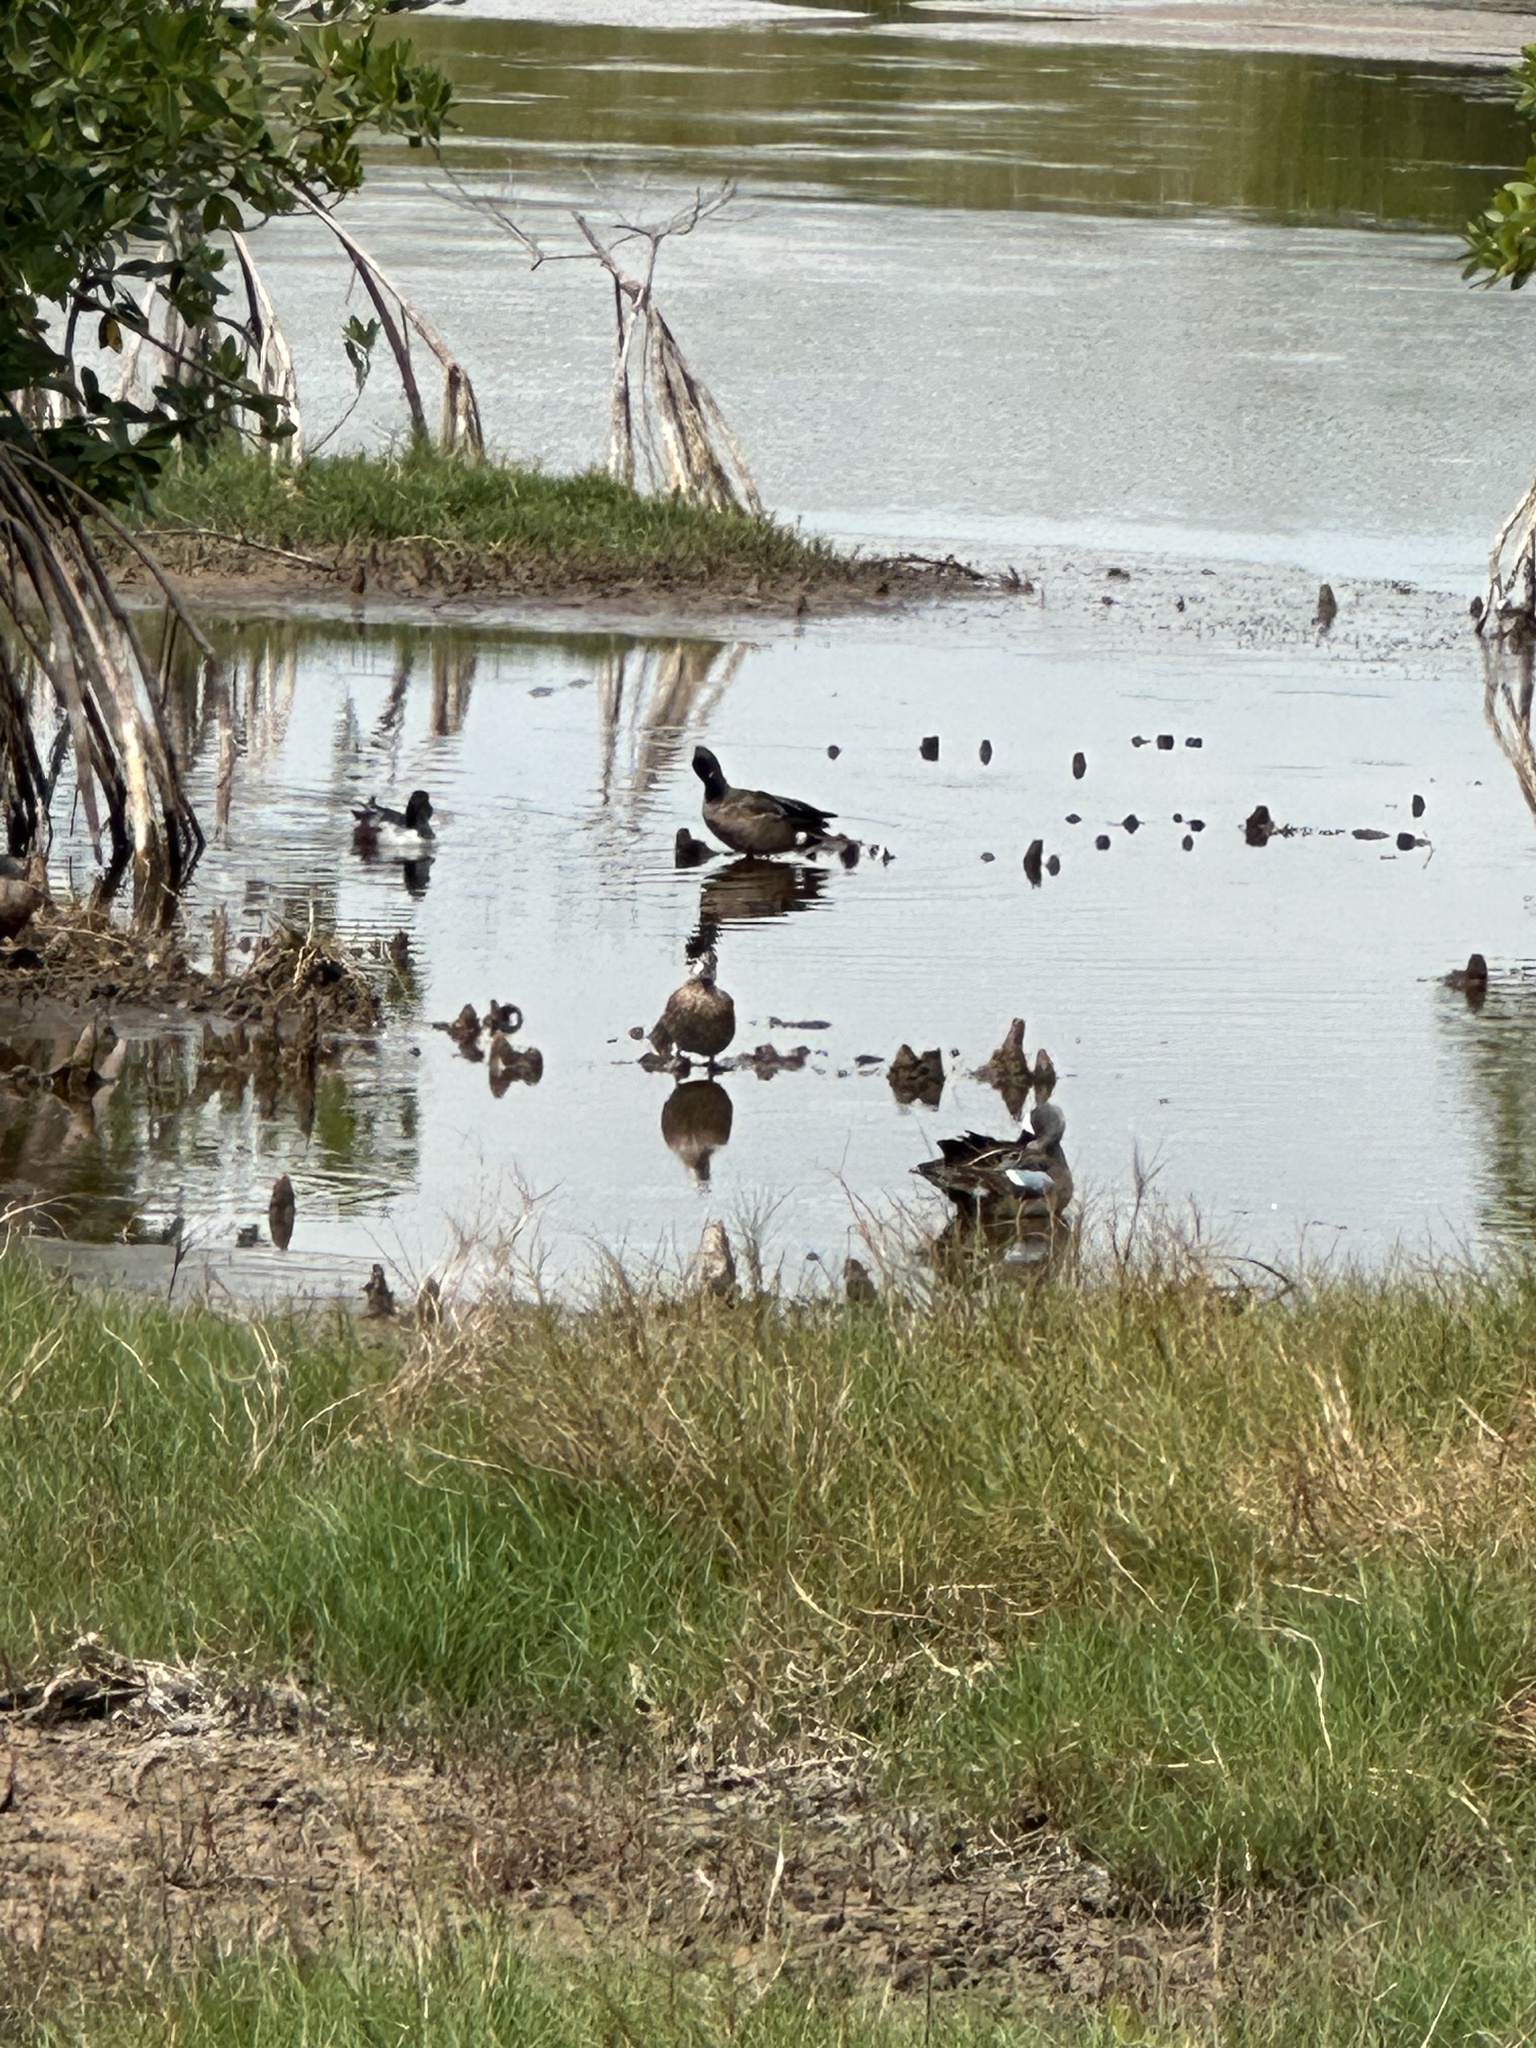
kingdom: Animalia
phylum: Chordata
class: Aves
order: Anseriformes
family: Anatidae
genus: Spatula
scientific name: Spatula discors
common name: Blue-winged teal
